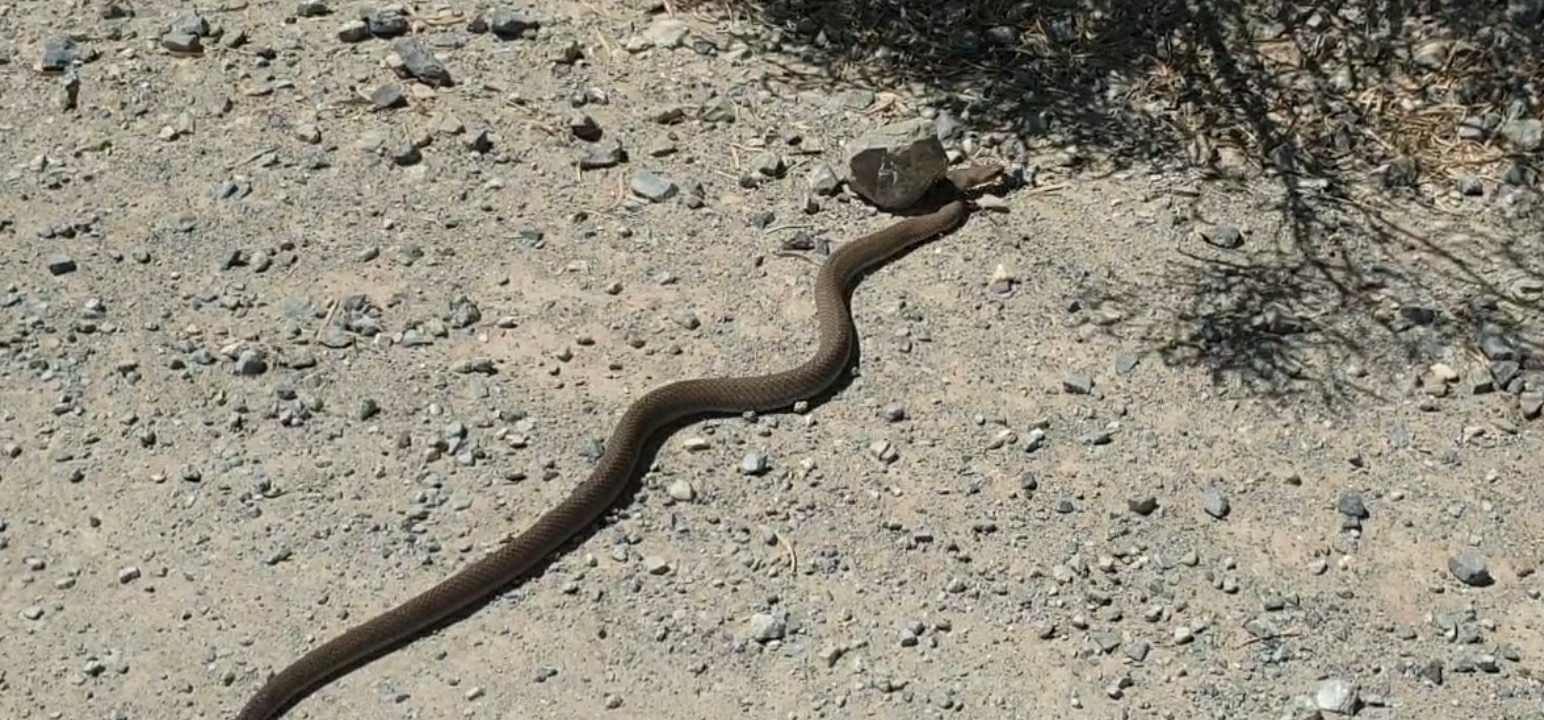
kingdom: Animalia
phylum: Chordata
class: Squamata
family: Elapidae
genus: Pseudonaja
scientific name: Pseudonaja textilis
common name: Eastern brown snake
